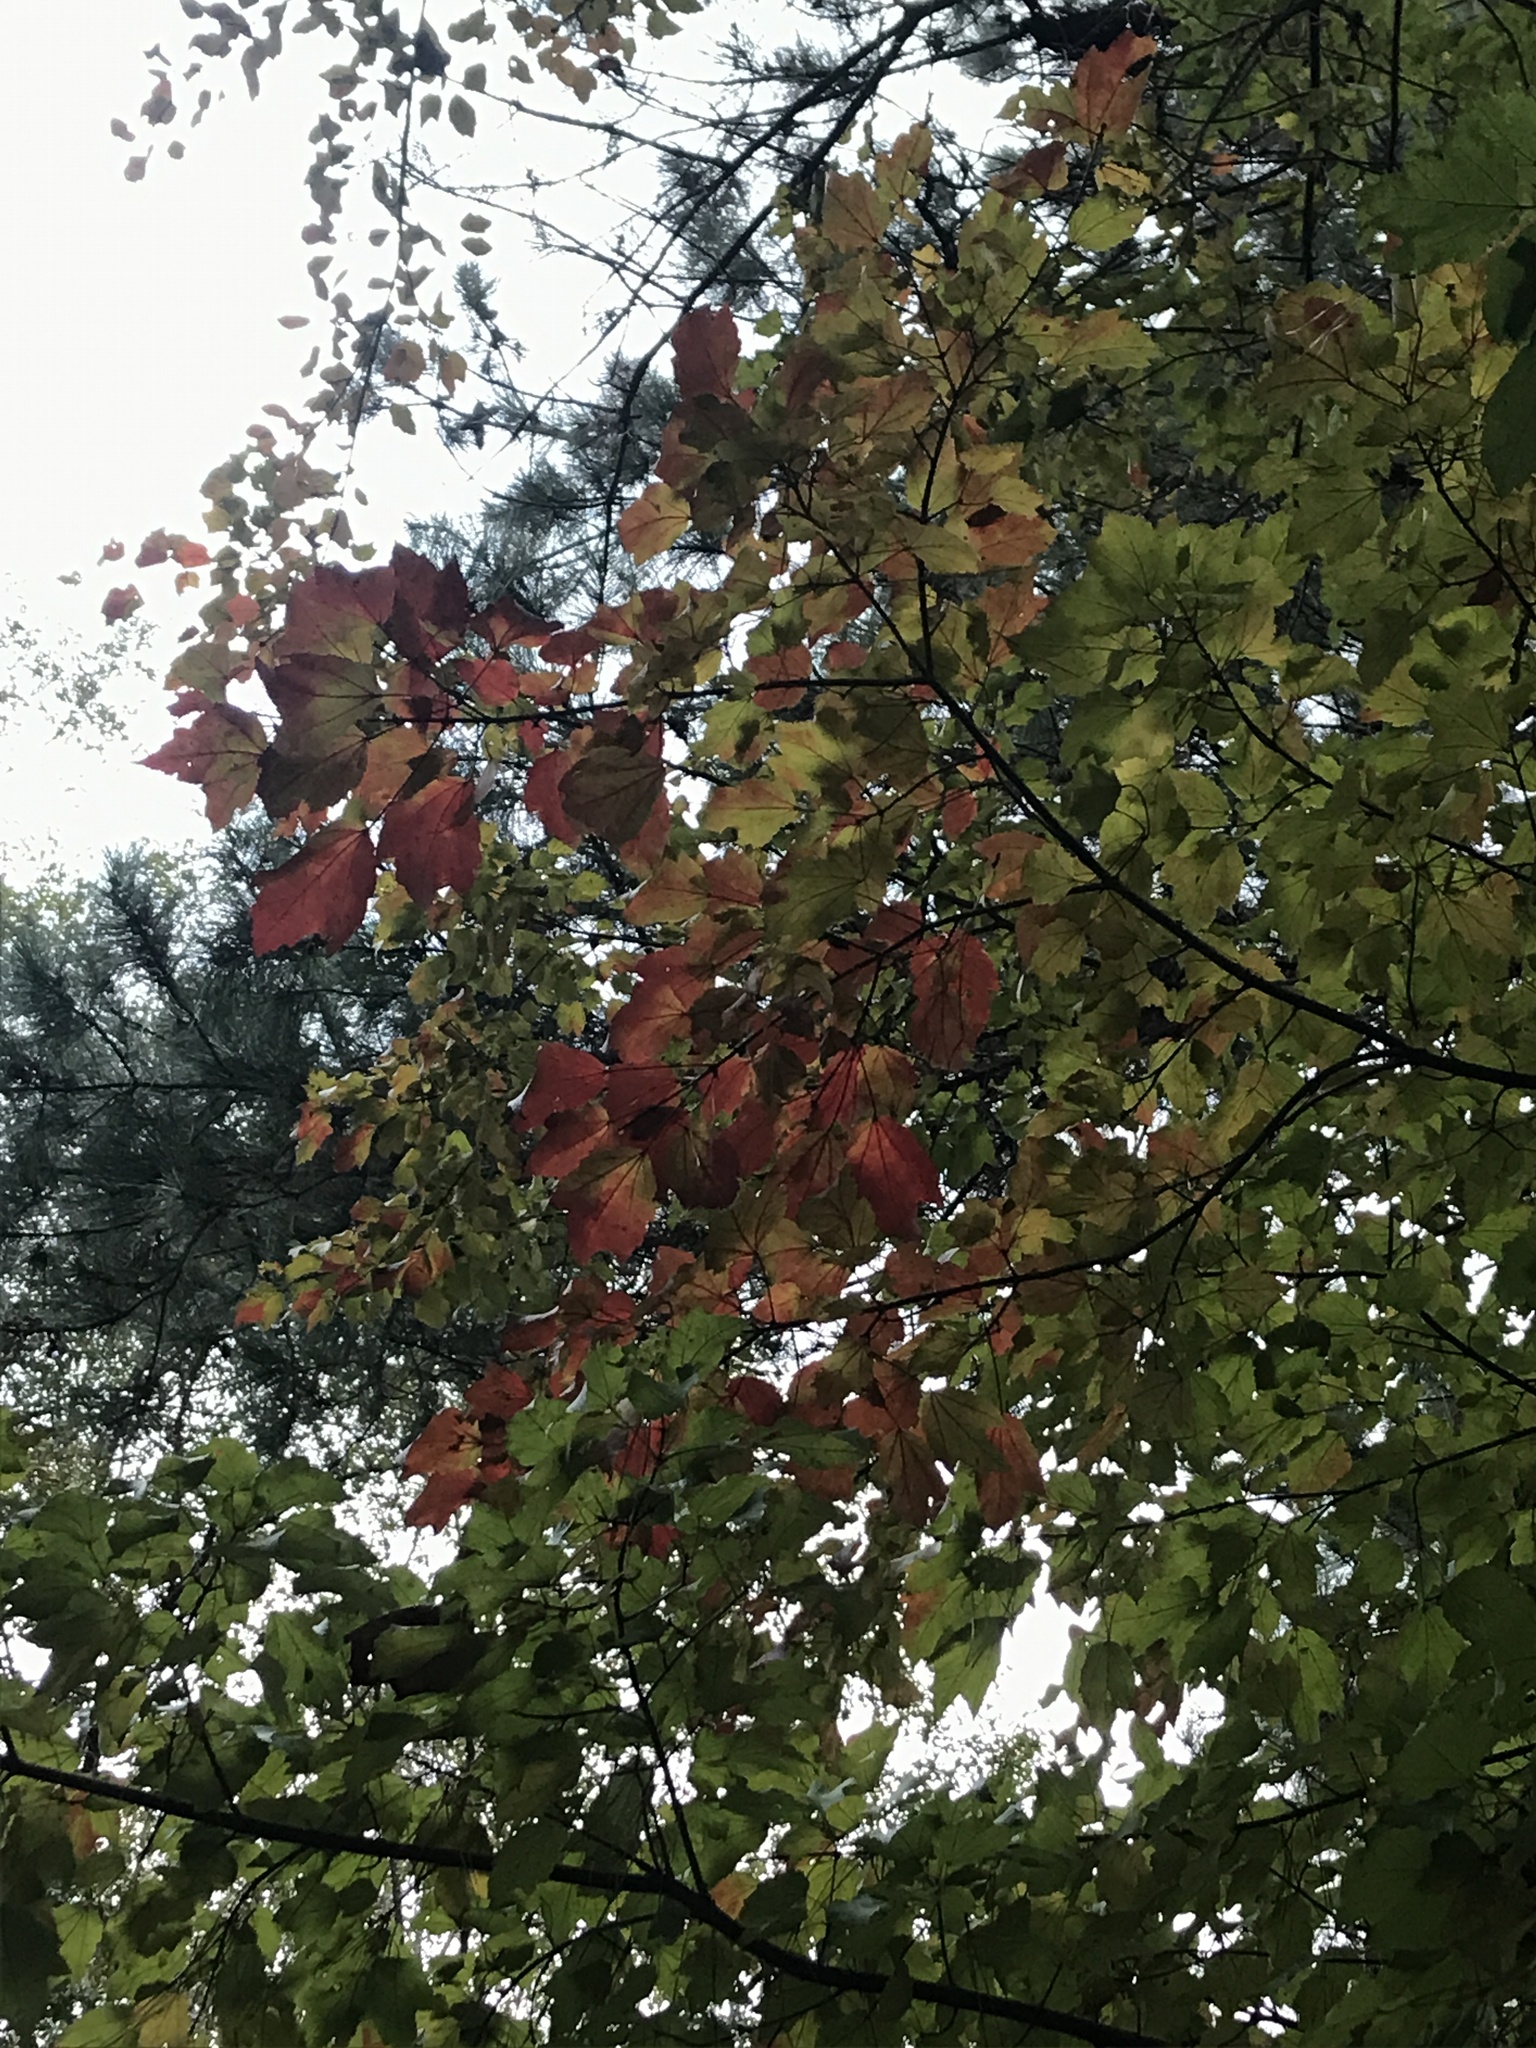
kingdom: Plantae
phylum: Tracheophyta
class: Magnoliopsida
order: Sapindales
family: Sapindaceae
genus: Acer
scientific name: Acer rubrum
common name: Red maple
